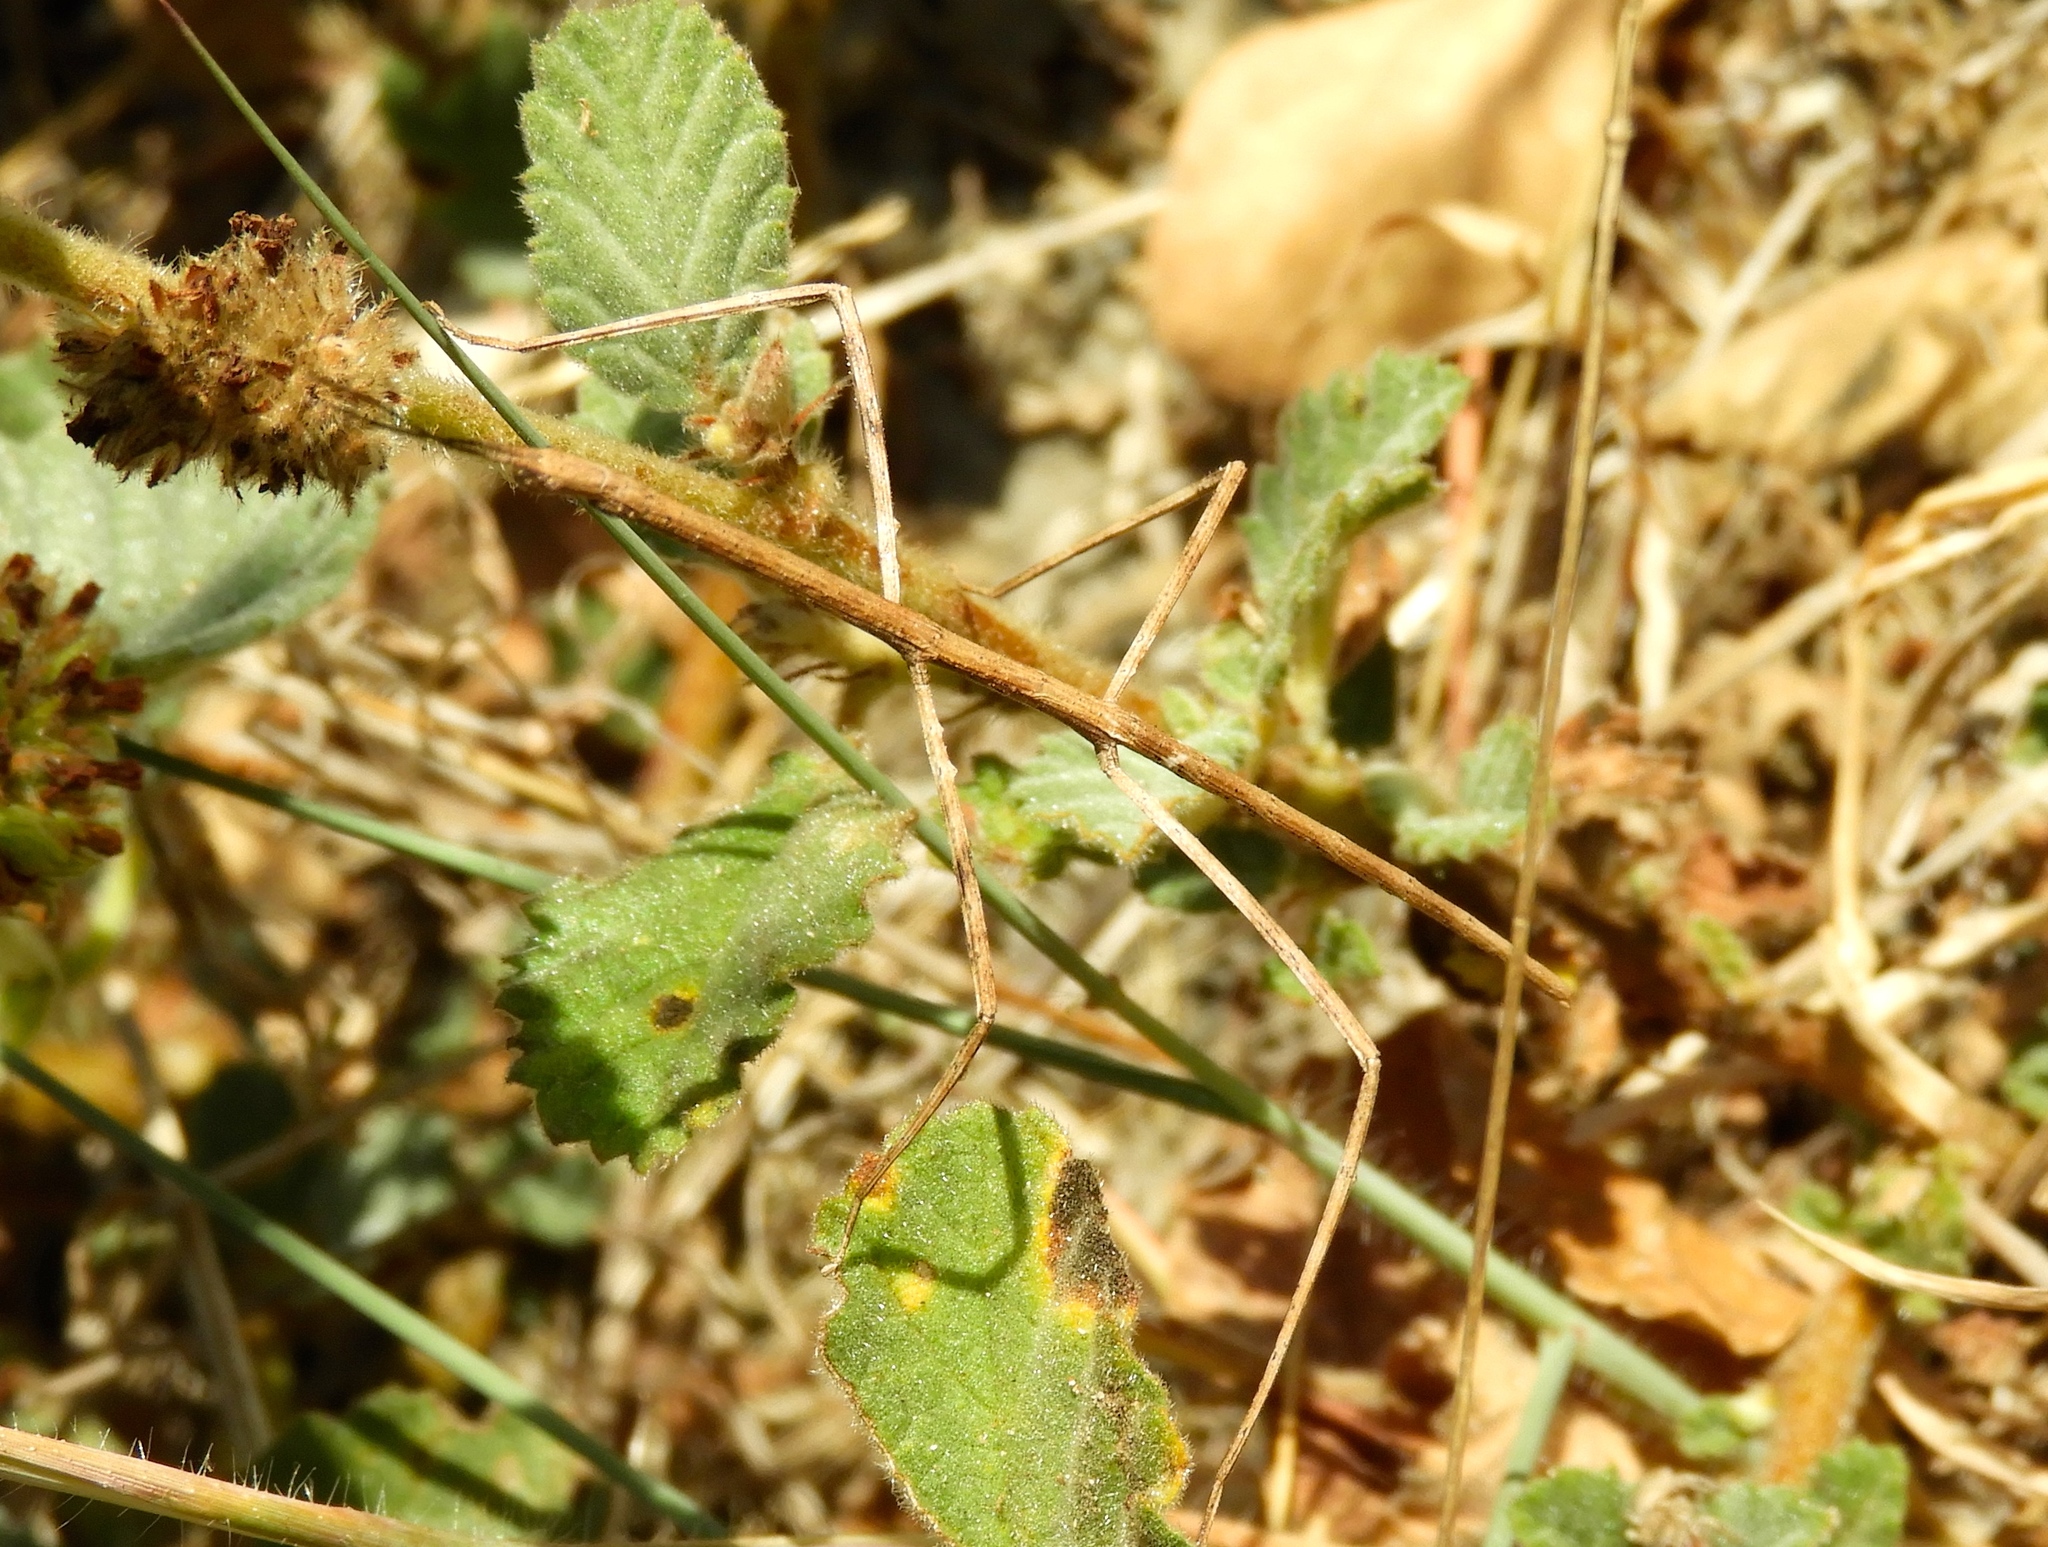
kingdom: Animalia
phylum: Arthropoda
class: Insecta
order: Phasmida
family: Diapheromeridae
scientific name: Diapheromeridae
